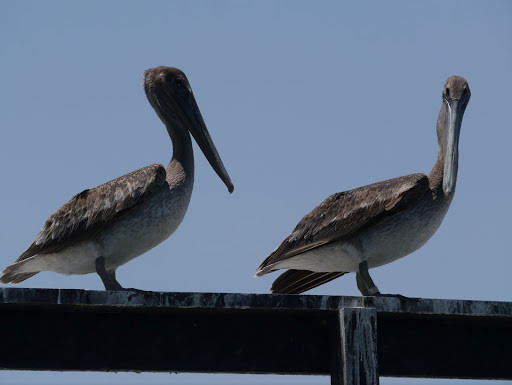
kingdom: Animalia
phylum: Chordata
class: Aves
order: Pelecaniformes
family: Pelecanidae
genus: Pelecanus
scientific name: Pelecanus occidentalis
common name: Brown pelican
